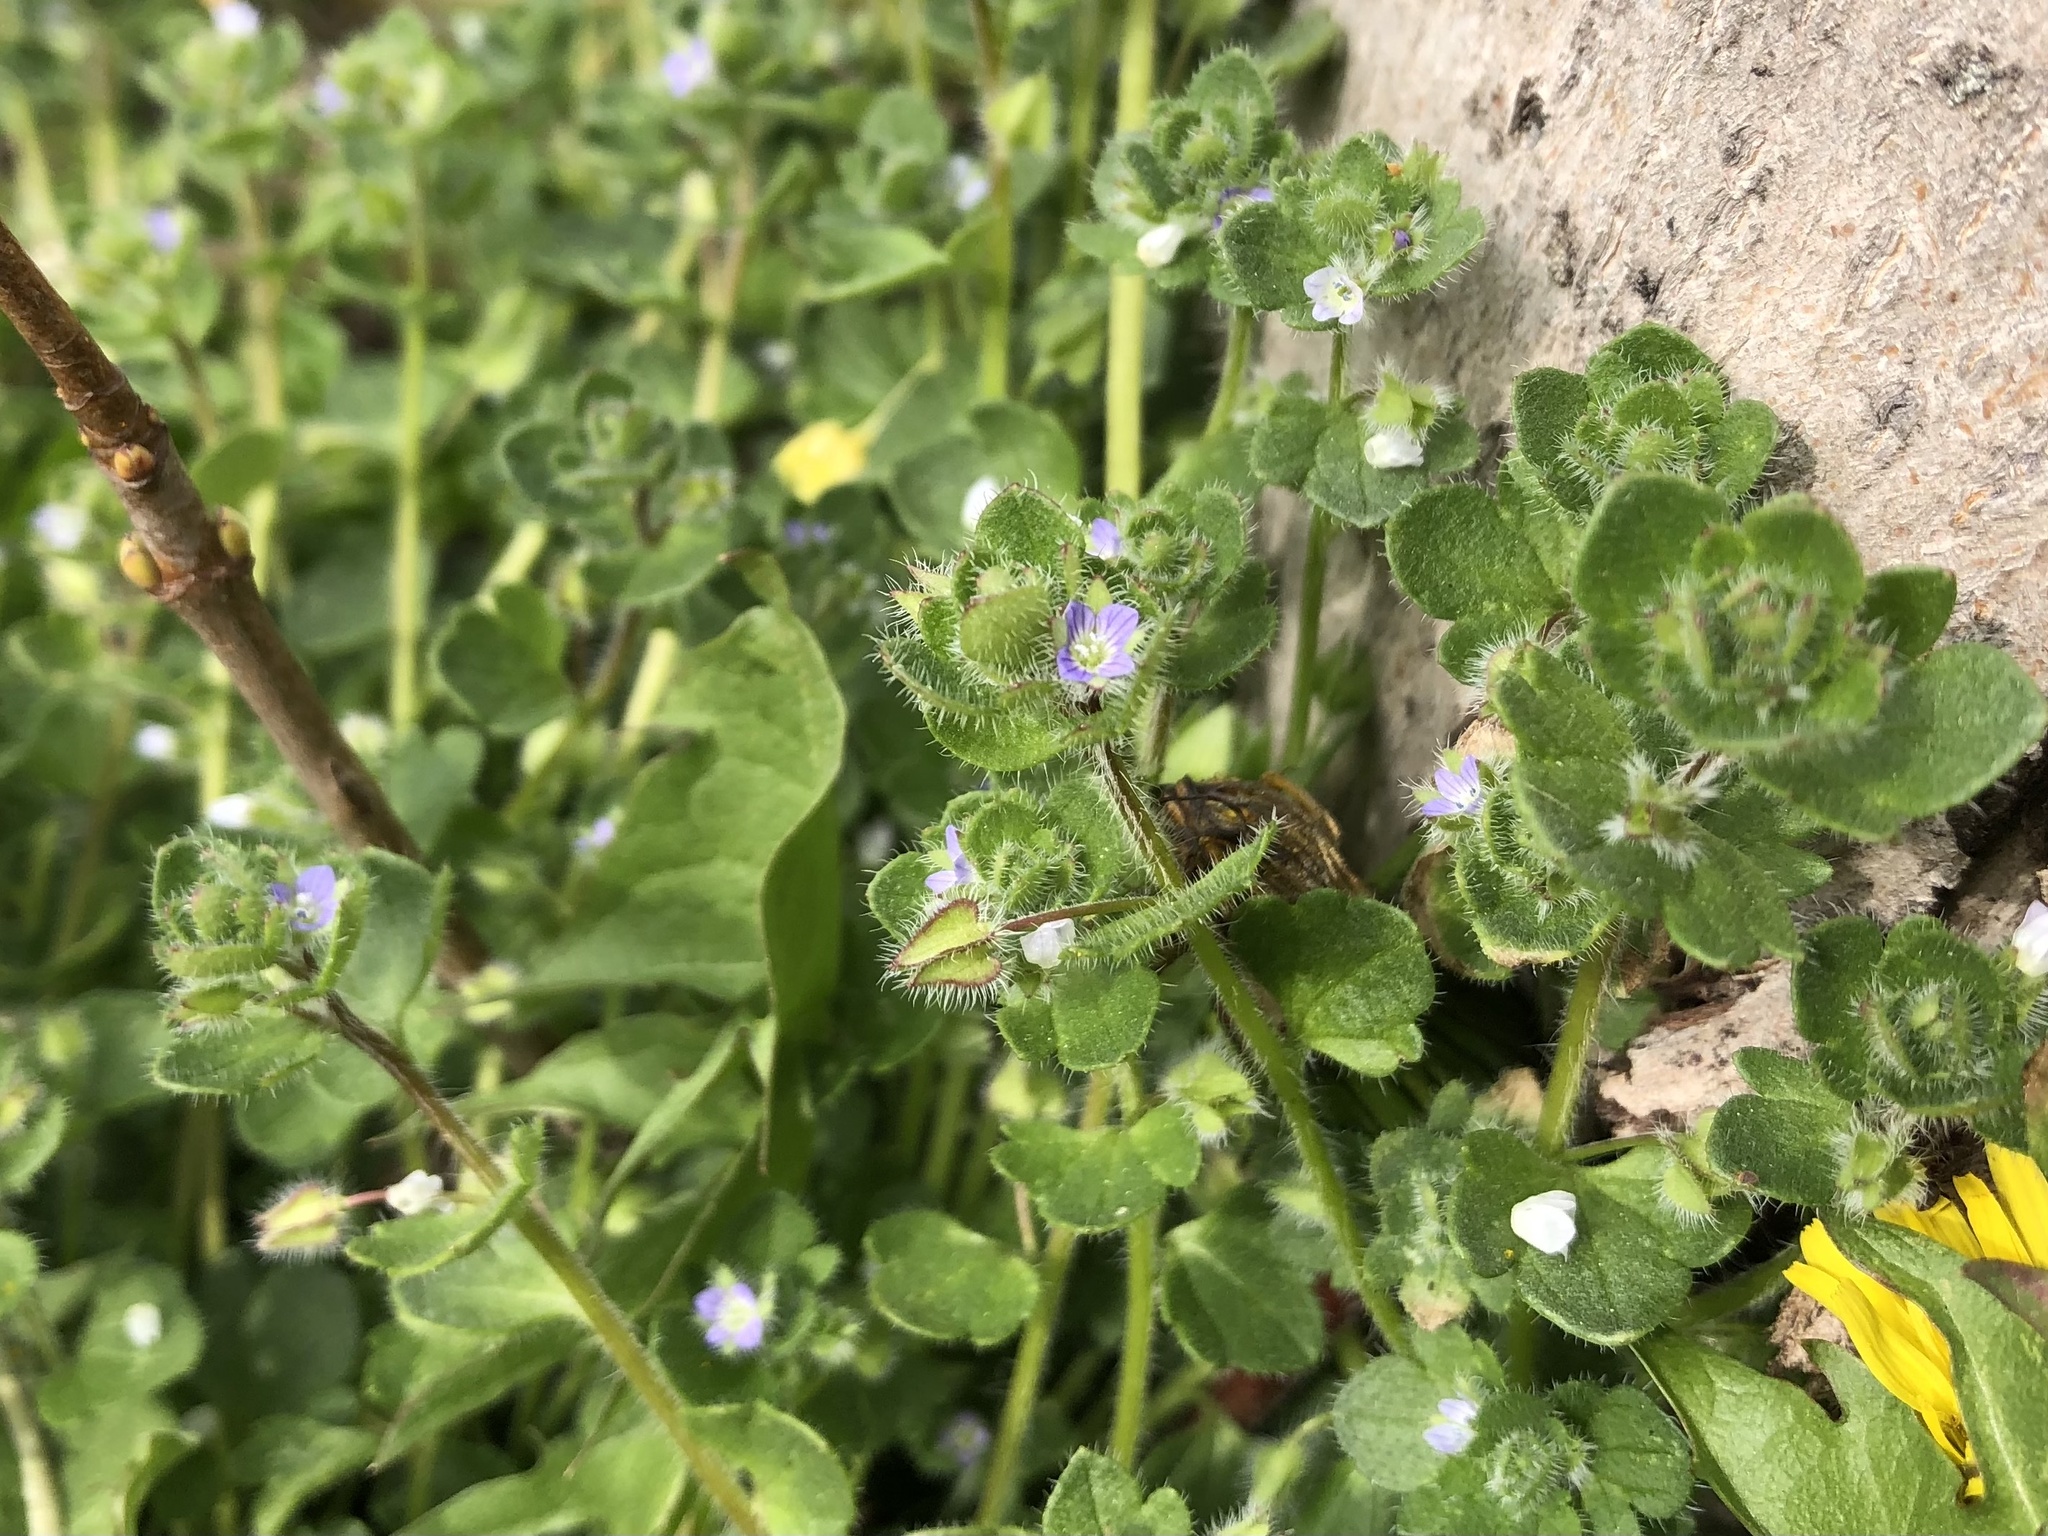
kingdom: Plantae
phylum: Tracheophyta
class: Magnoliopsida
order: Lamiales
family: Plantaginaceae
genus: Veronica
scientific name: Veronica hederifolia
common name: Ivy-leaved speedwell
